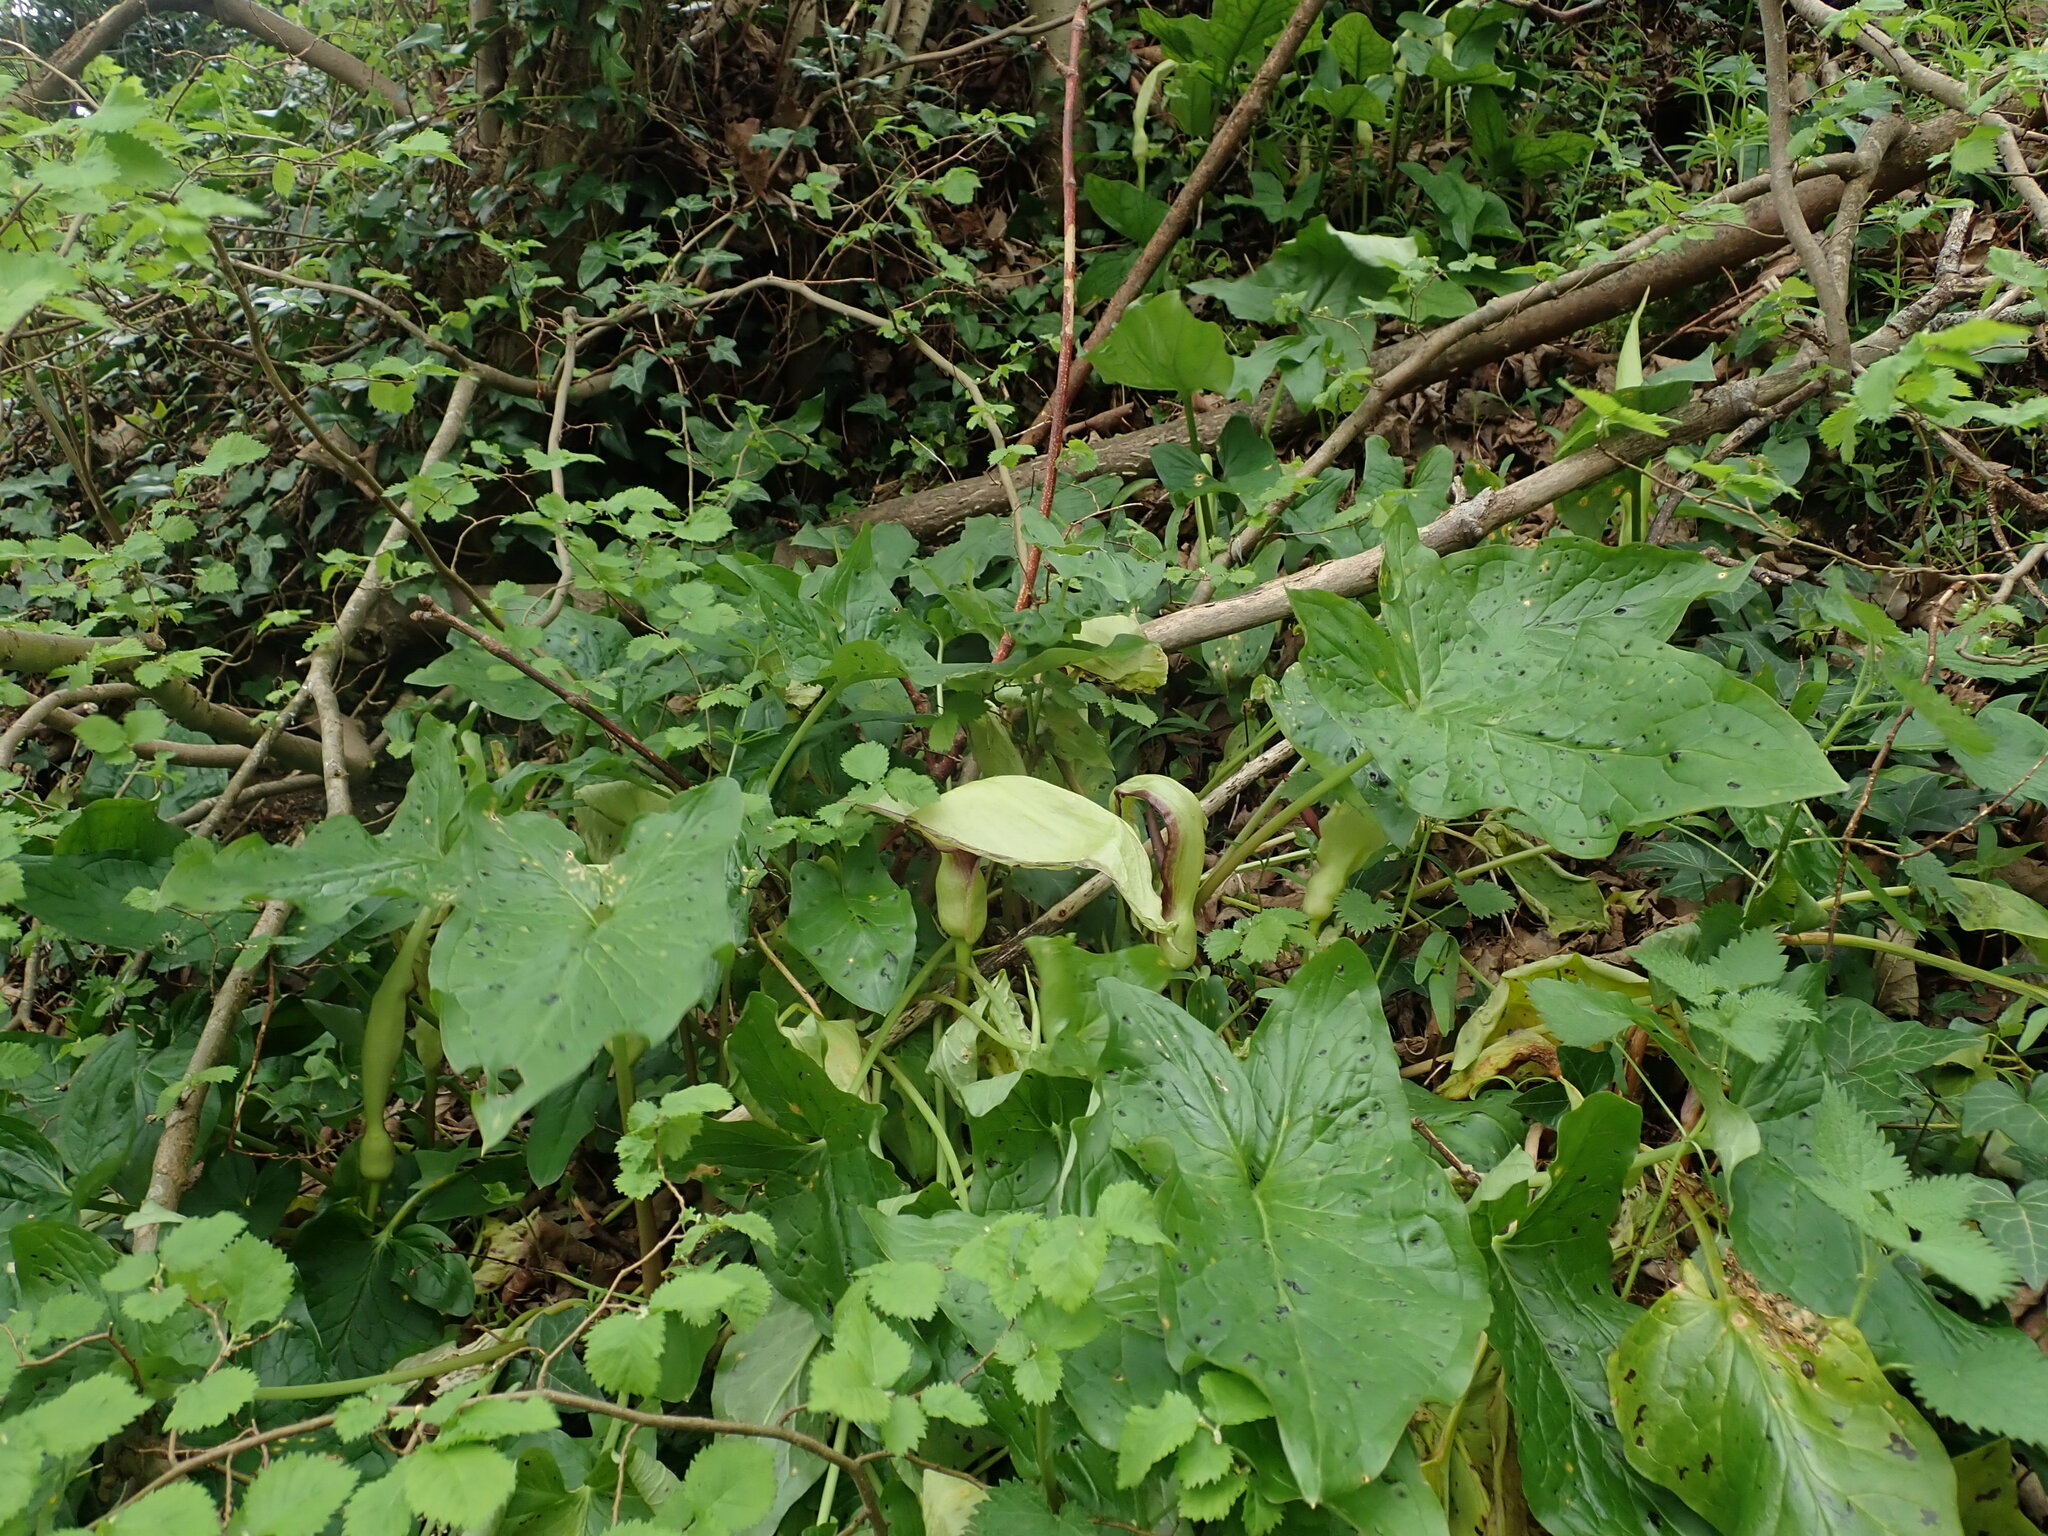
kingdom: Plantae
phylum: Tracheophyta
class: Liliopsida
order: Alismatales
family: Araceae
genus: Arum
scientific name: Arum maculatum
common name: Lords-and-ladies
